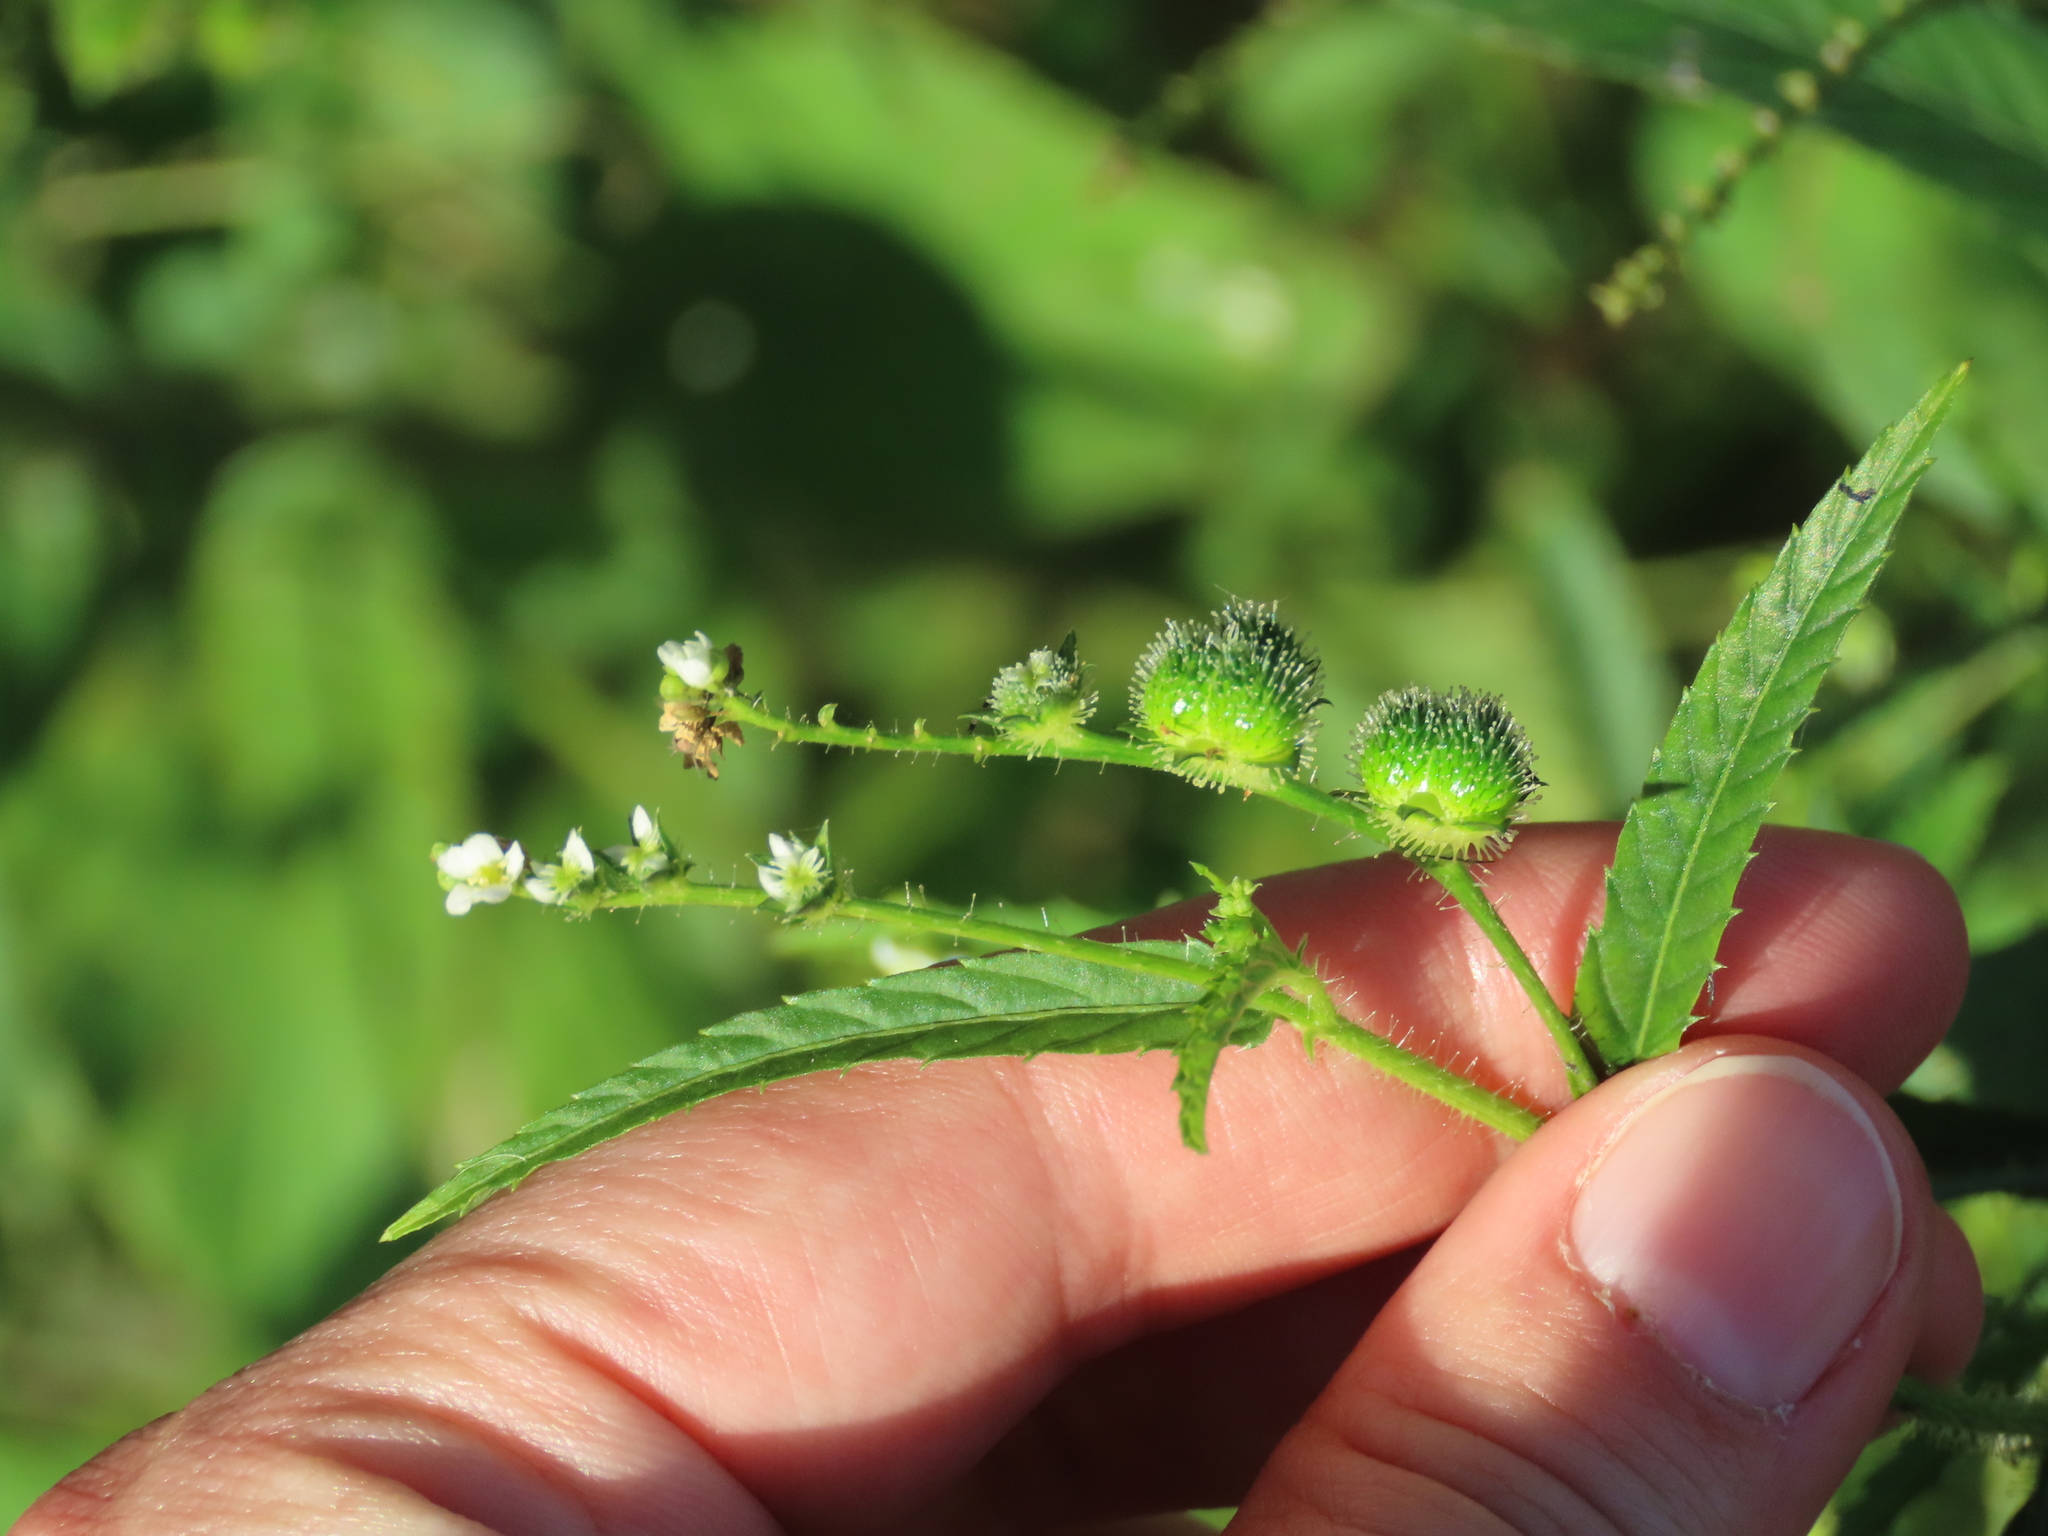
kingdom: Plantae
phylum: Tracheophyta
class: Magnoliopsida
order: Malpighiales
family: Euphorbiaceae
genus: Caperonia
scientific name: Caperonia palustris
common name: Sacatrapo
